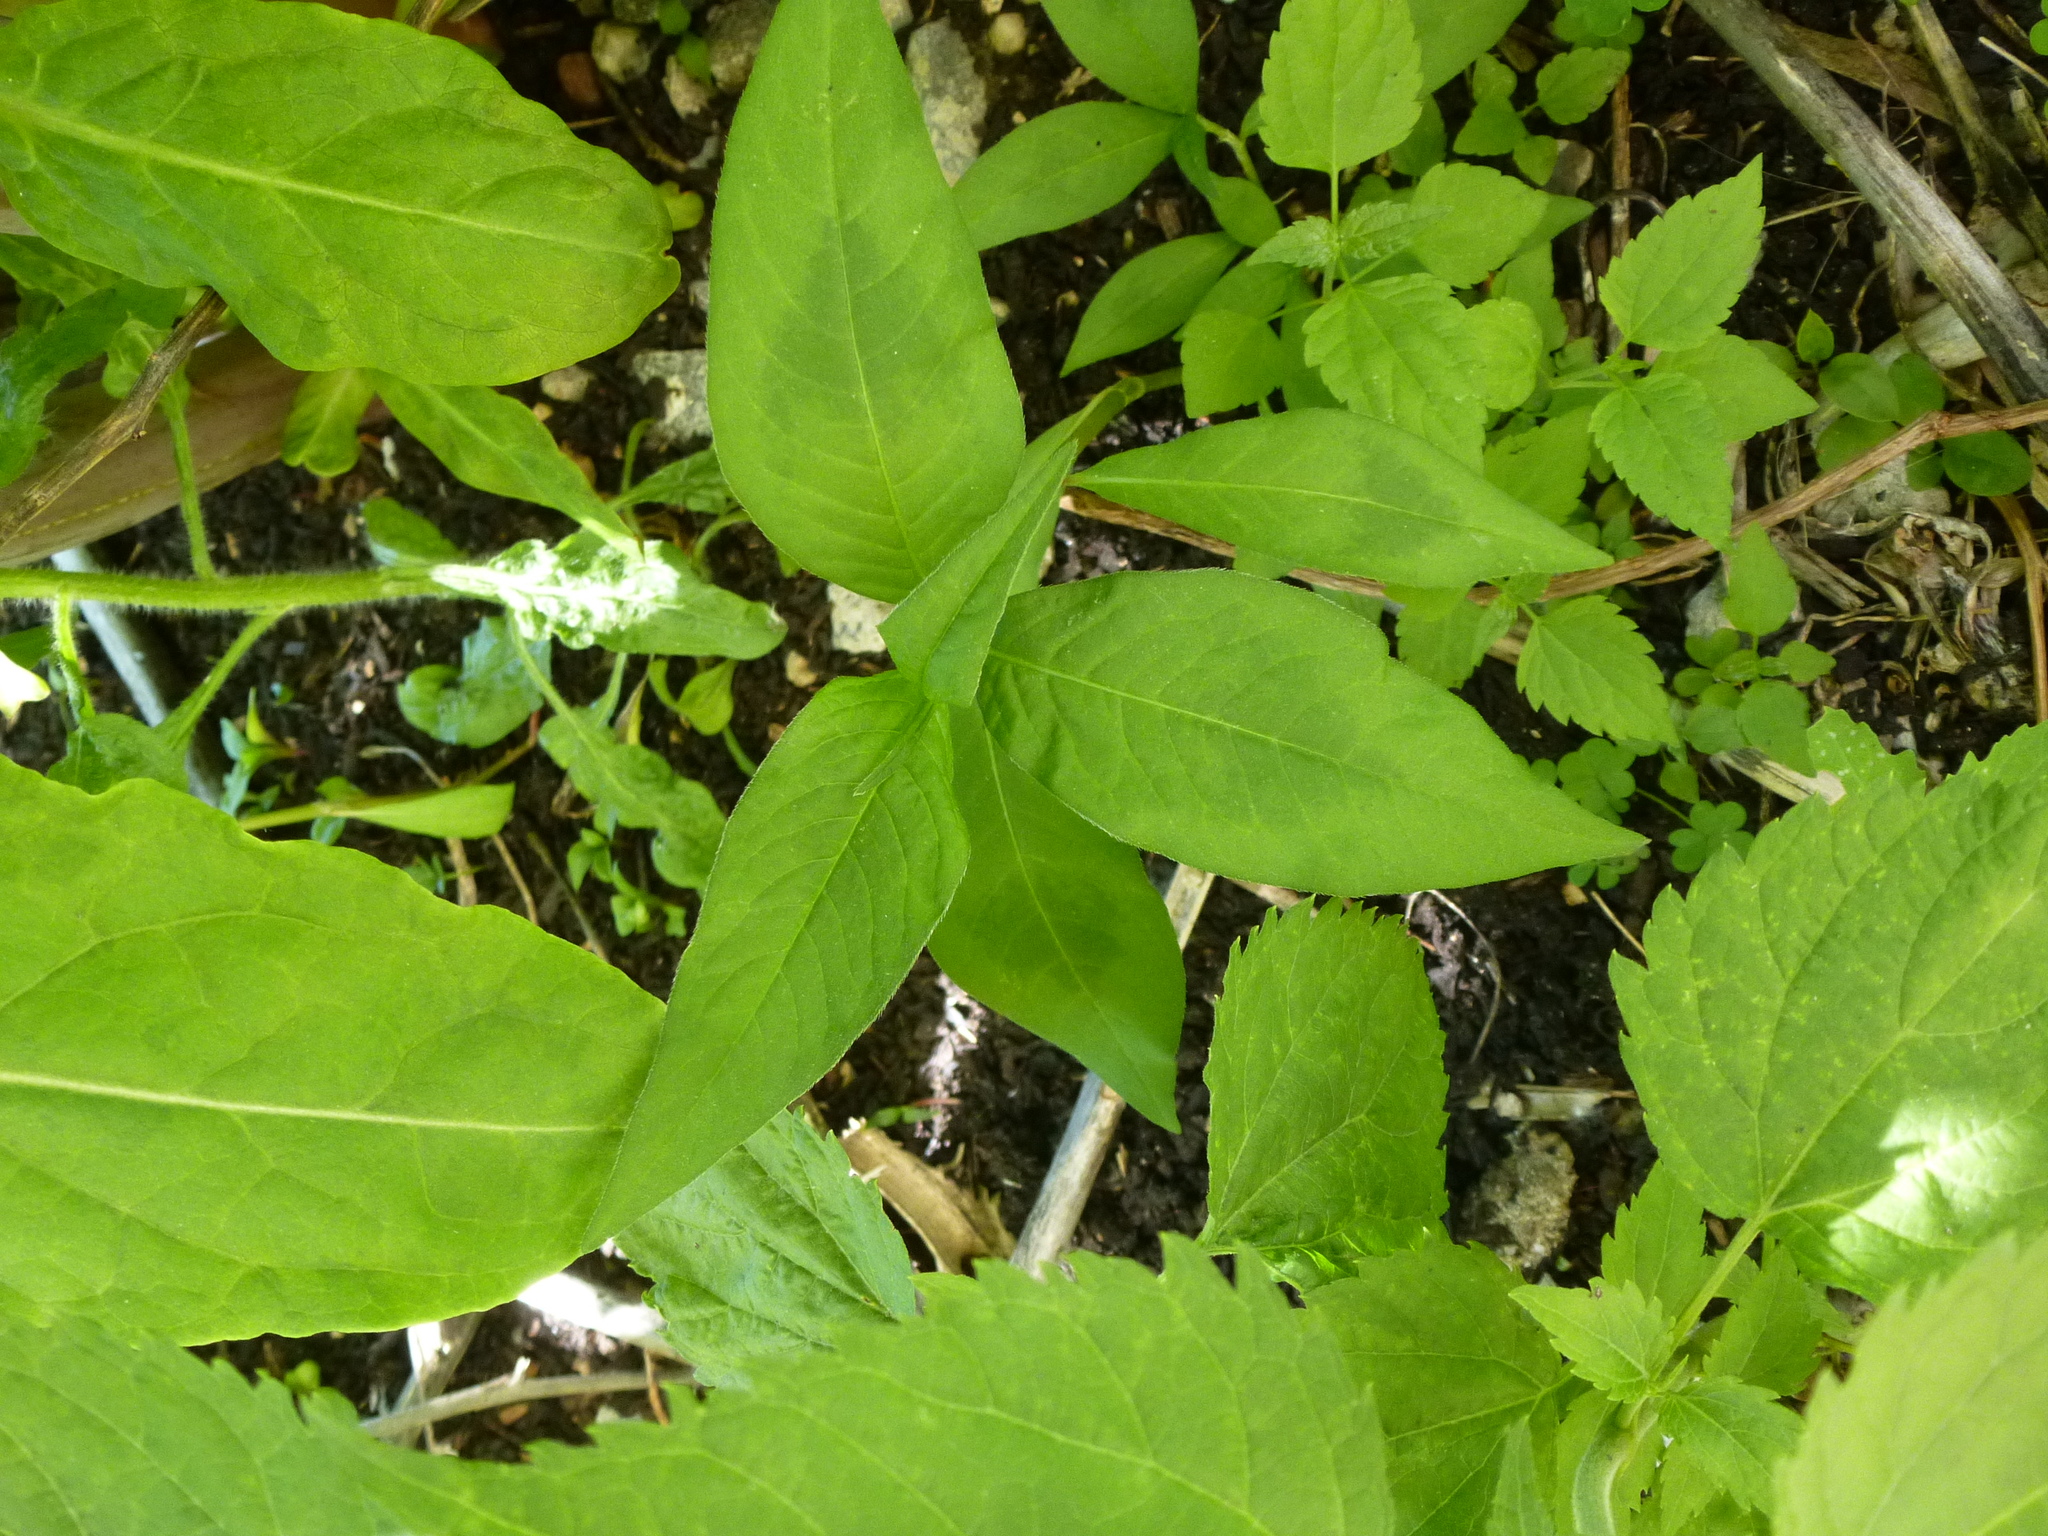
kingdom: Plantae
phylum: Tracheophyta
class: Magnoliopsida
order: Caryophyllales
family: Polygonaceae
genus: Persicaria
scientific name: Persicaria virginiana
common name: Jumpseed
